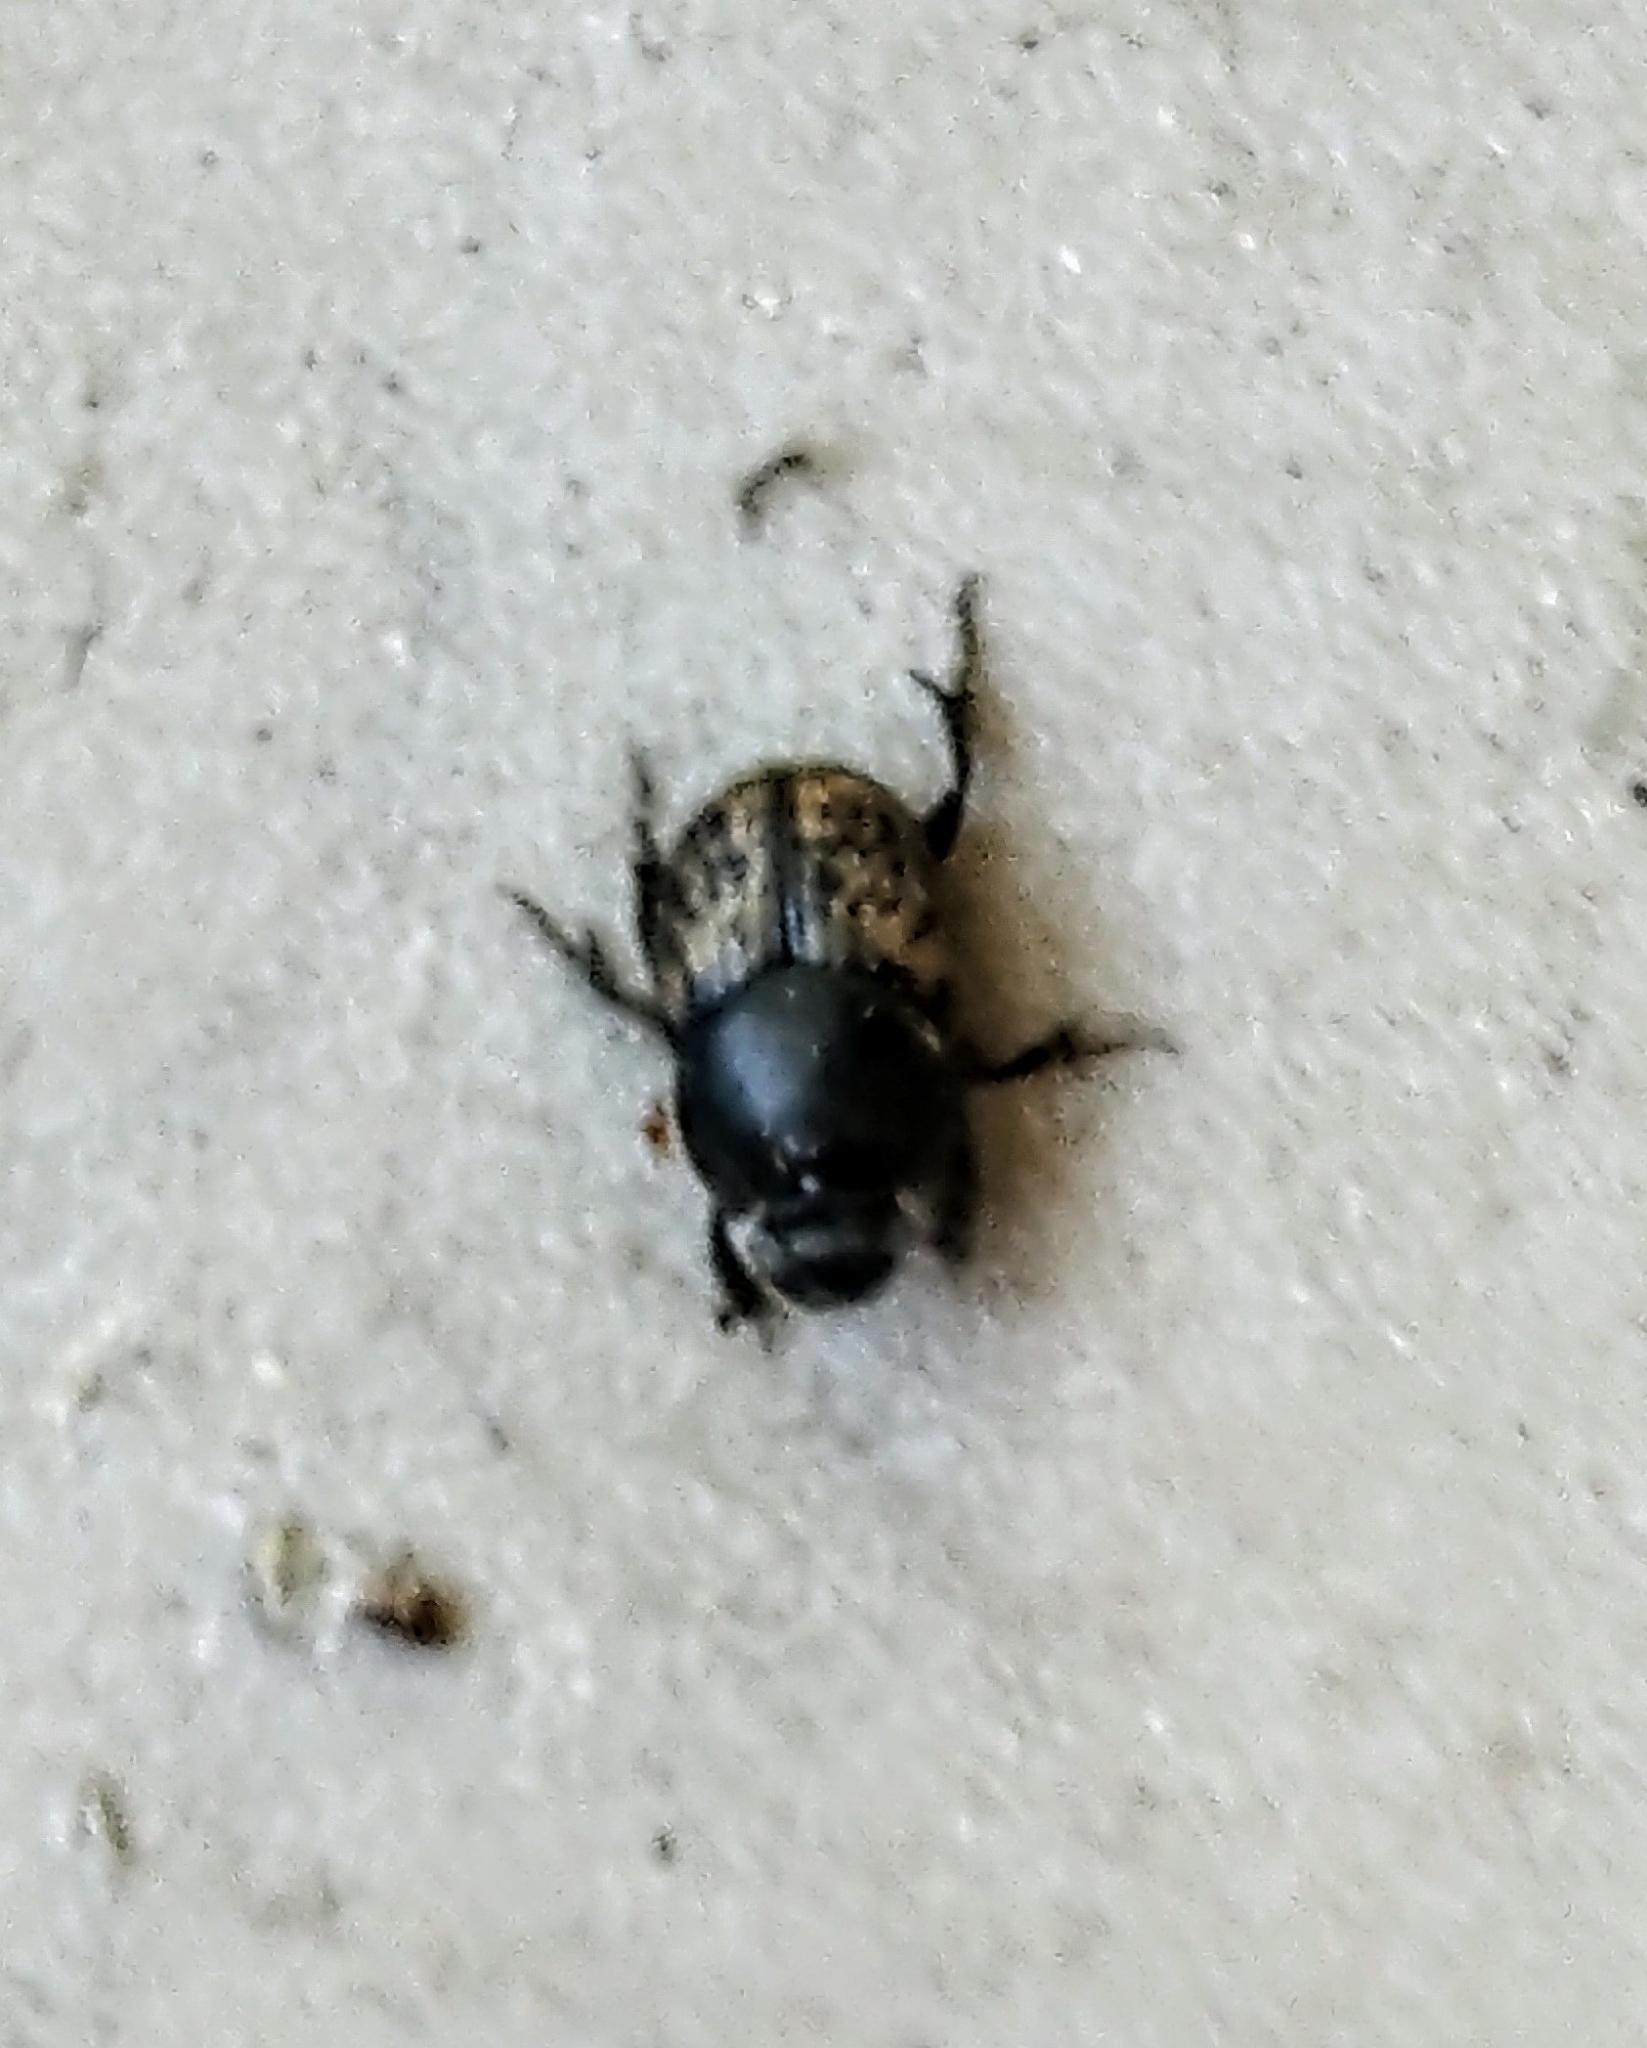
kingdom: Animalia
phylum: Arthropoda
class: Insecta
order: Coleoptera
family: Scarabaeidae
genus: Onthophagus
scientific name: Onthophagus nuchicornis
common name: Mottled dung beetle
